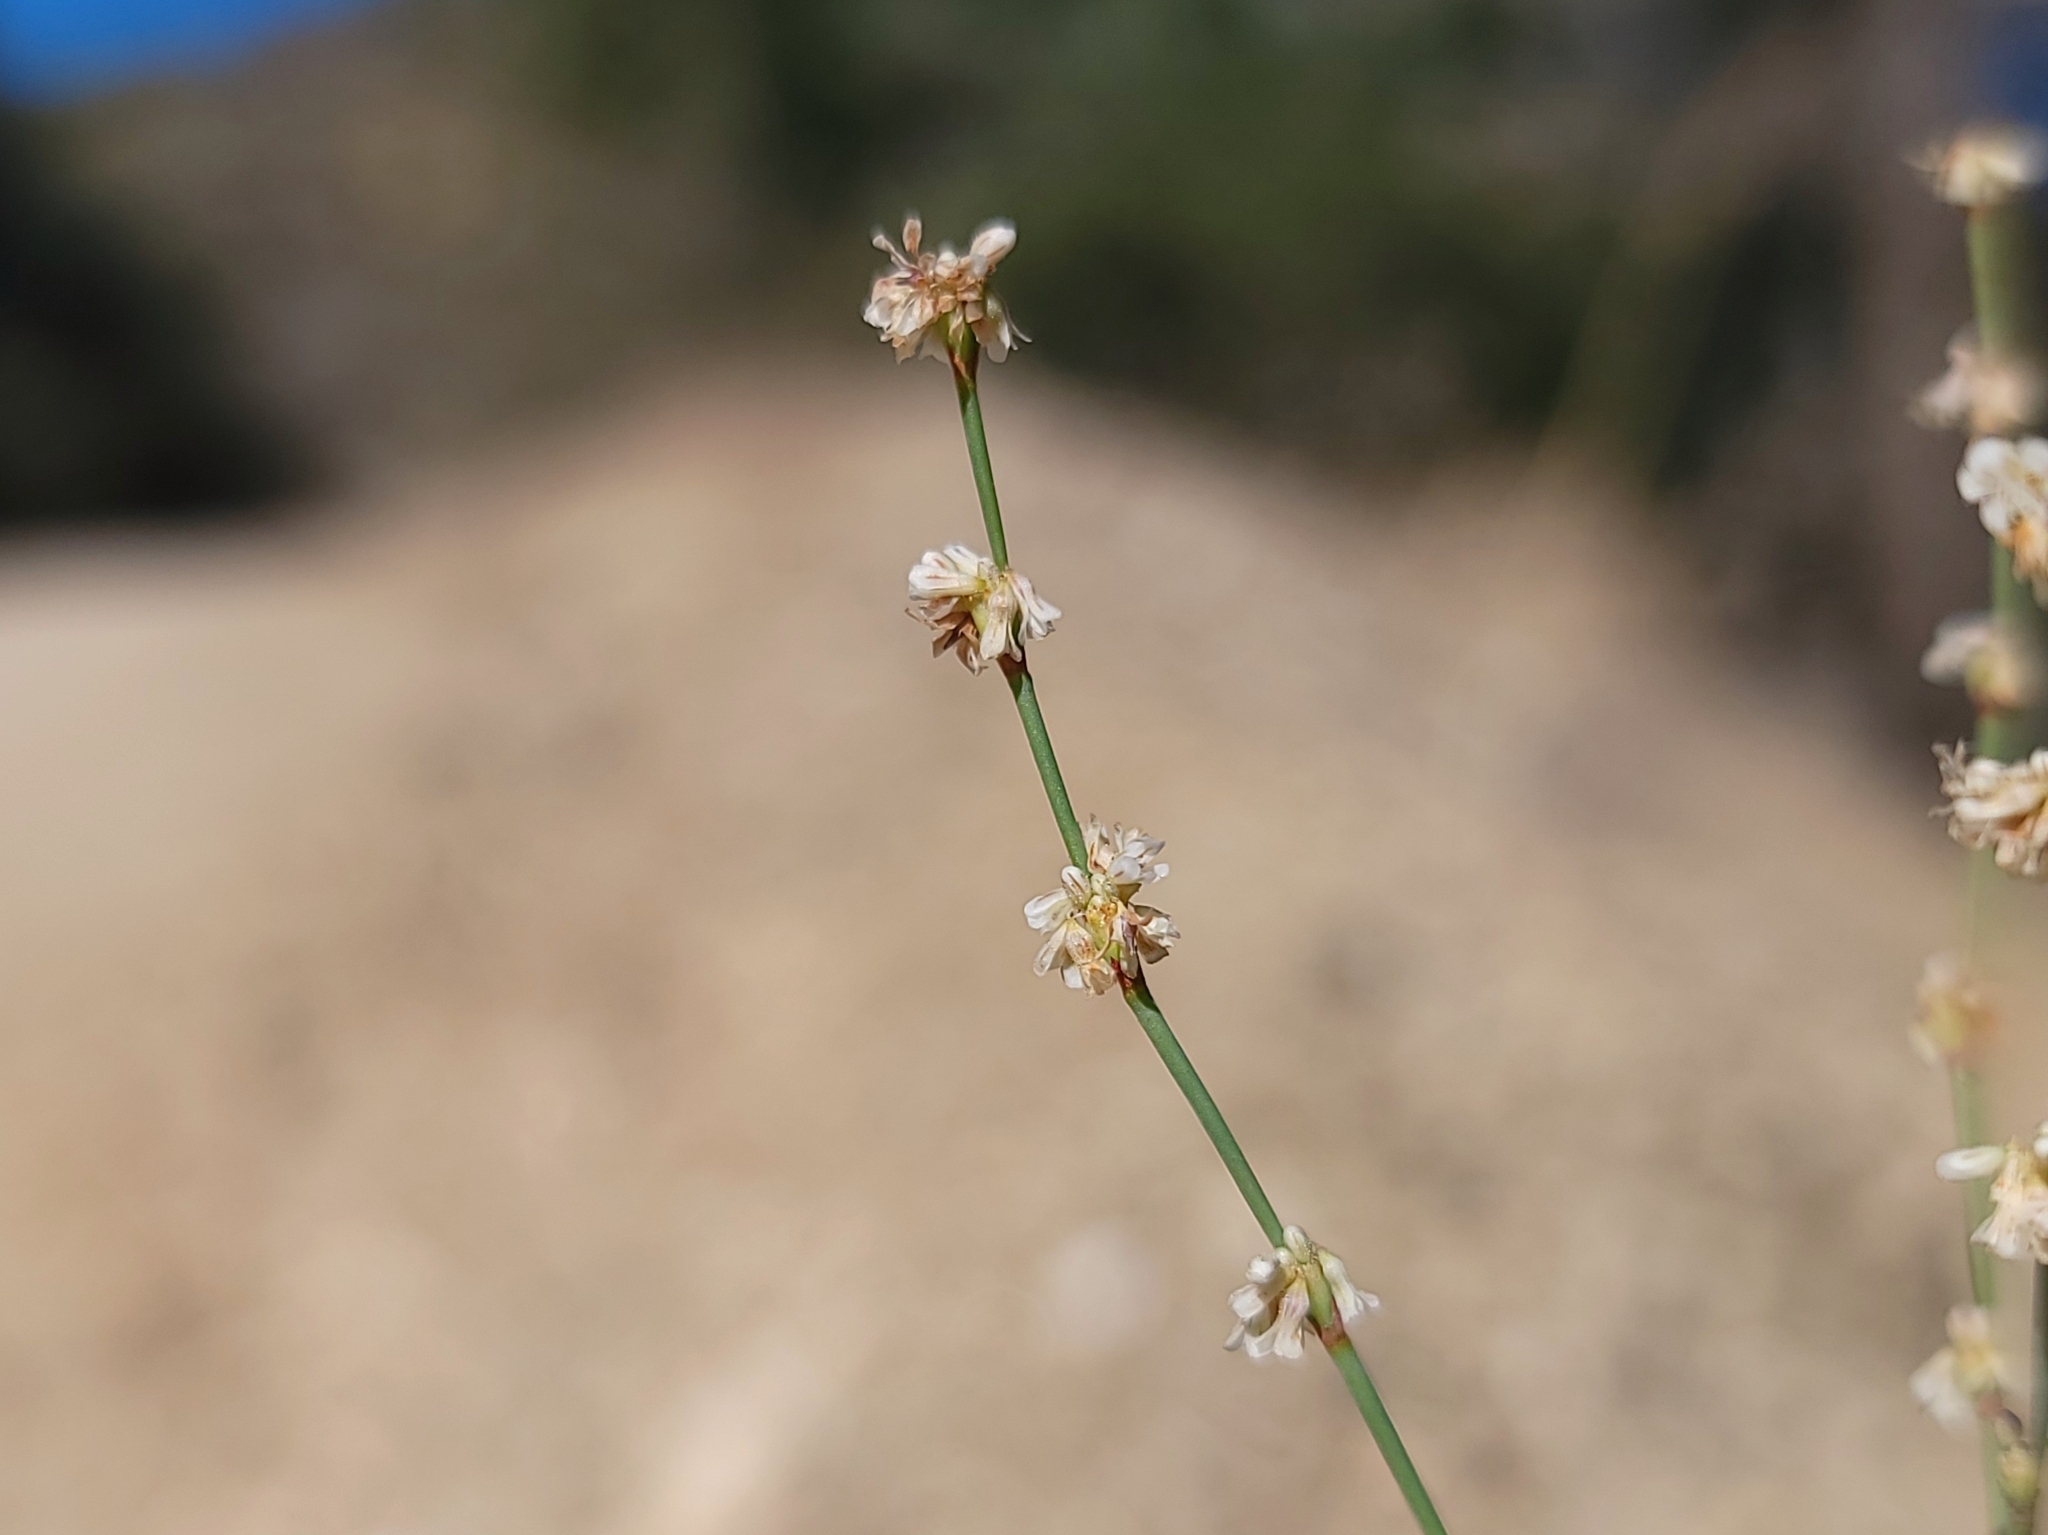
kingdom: Plantae
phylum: Tracheophyta
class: Magnoliopsida
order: Caryophyllales
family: Polygonaceae
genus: Eriogonum
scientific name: Eriogonum baileyi
